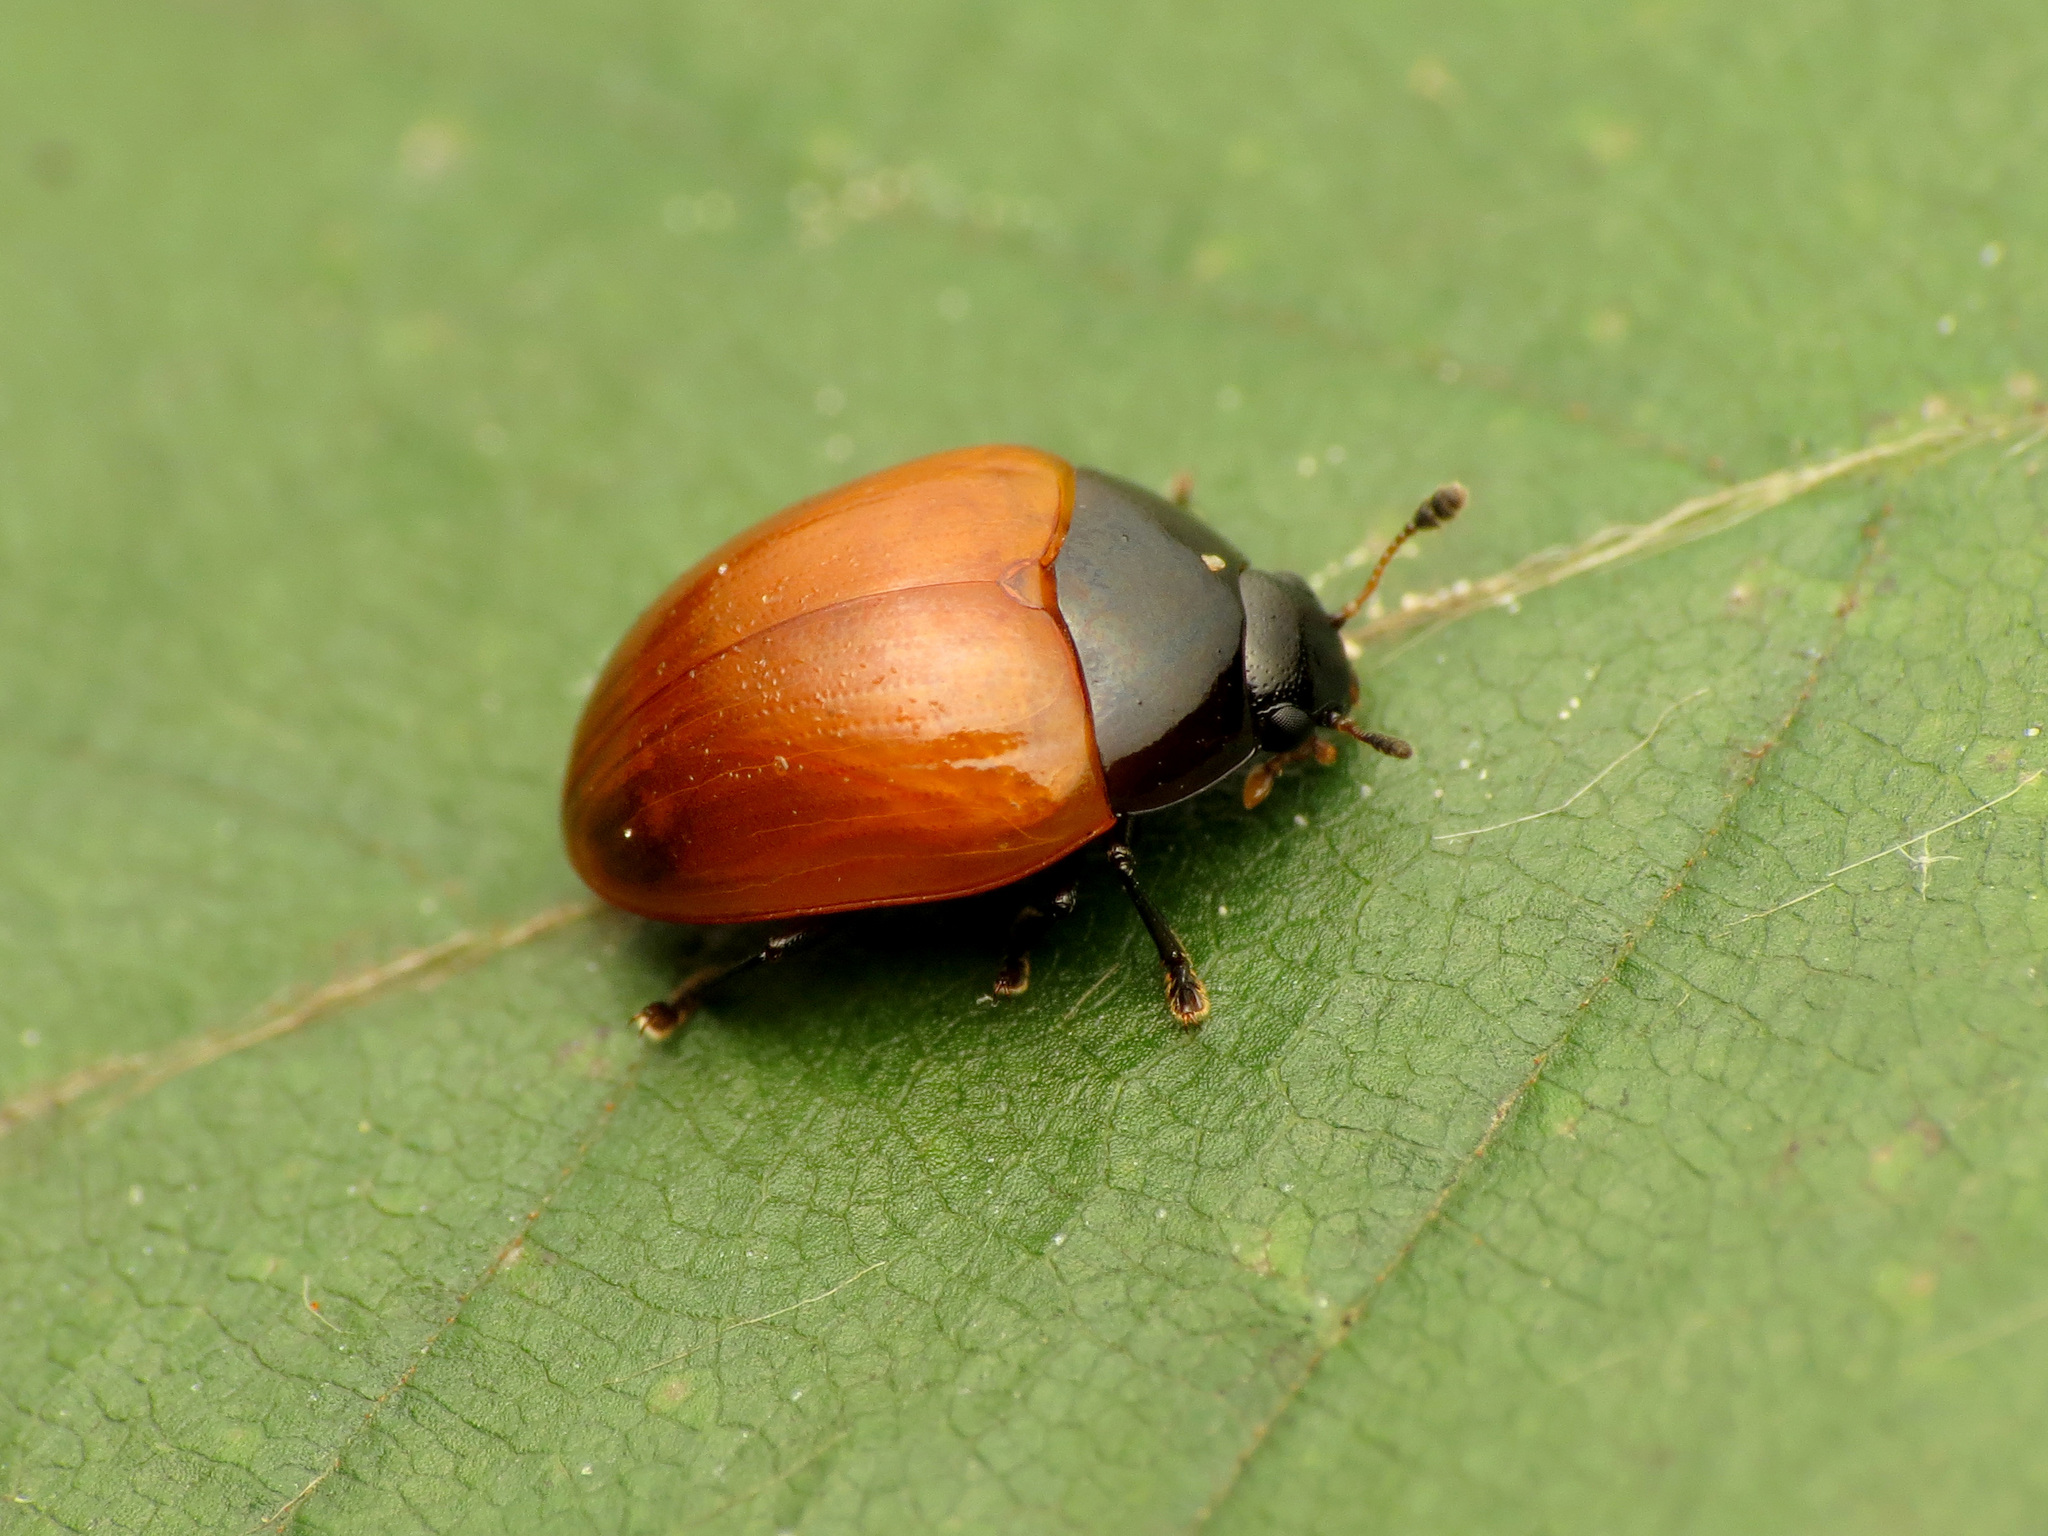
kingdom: Animalia
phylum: Arthropoda
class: Insecta
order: Coleoptera
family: Erotylidae
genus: Tritoma
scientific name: Tritoma sanguinipennis
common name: Red-winged tritoma
